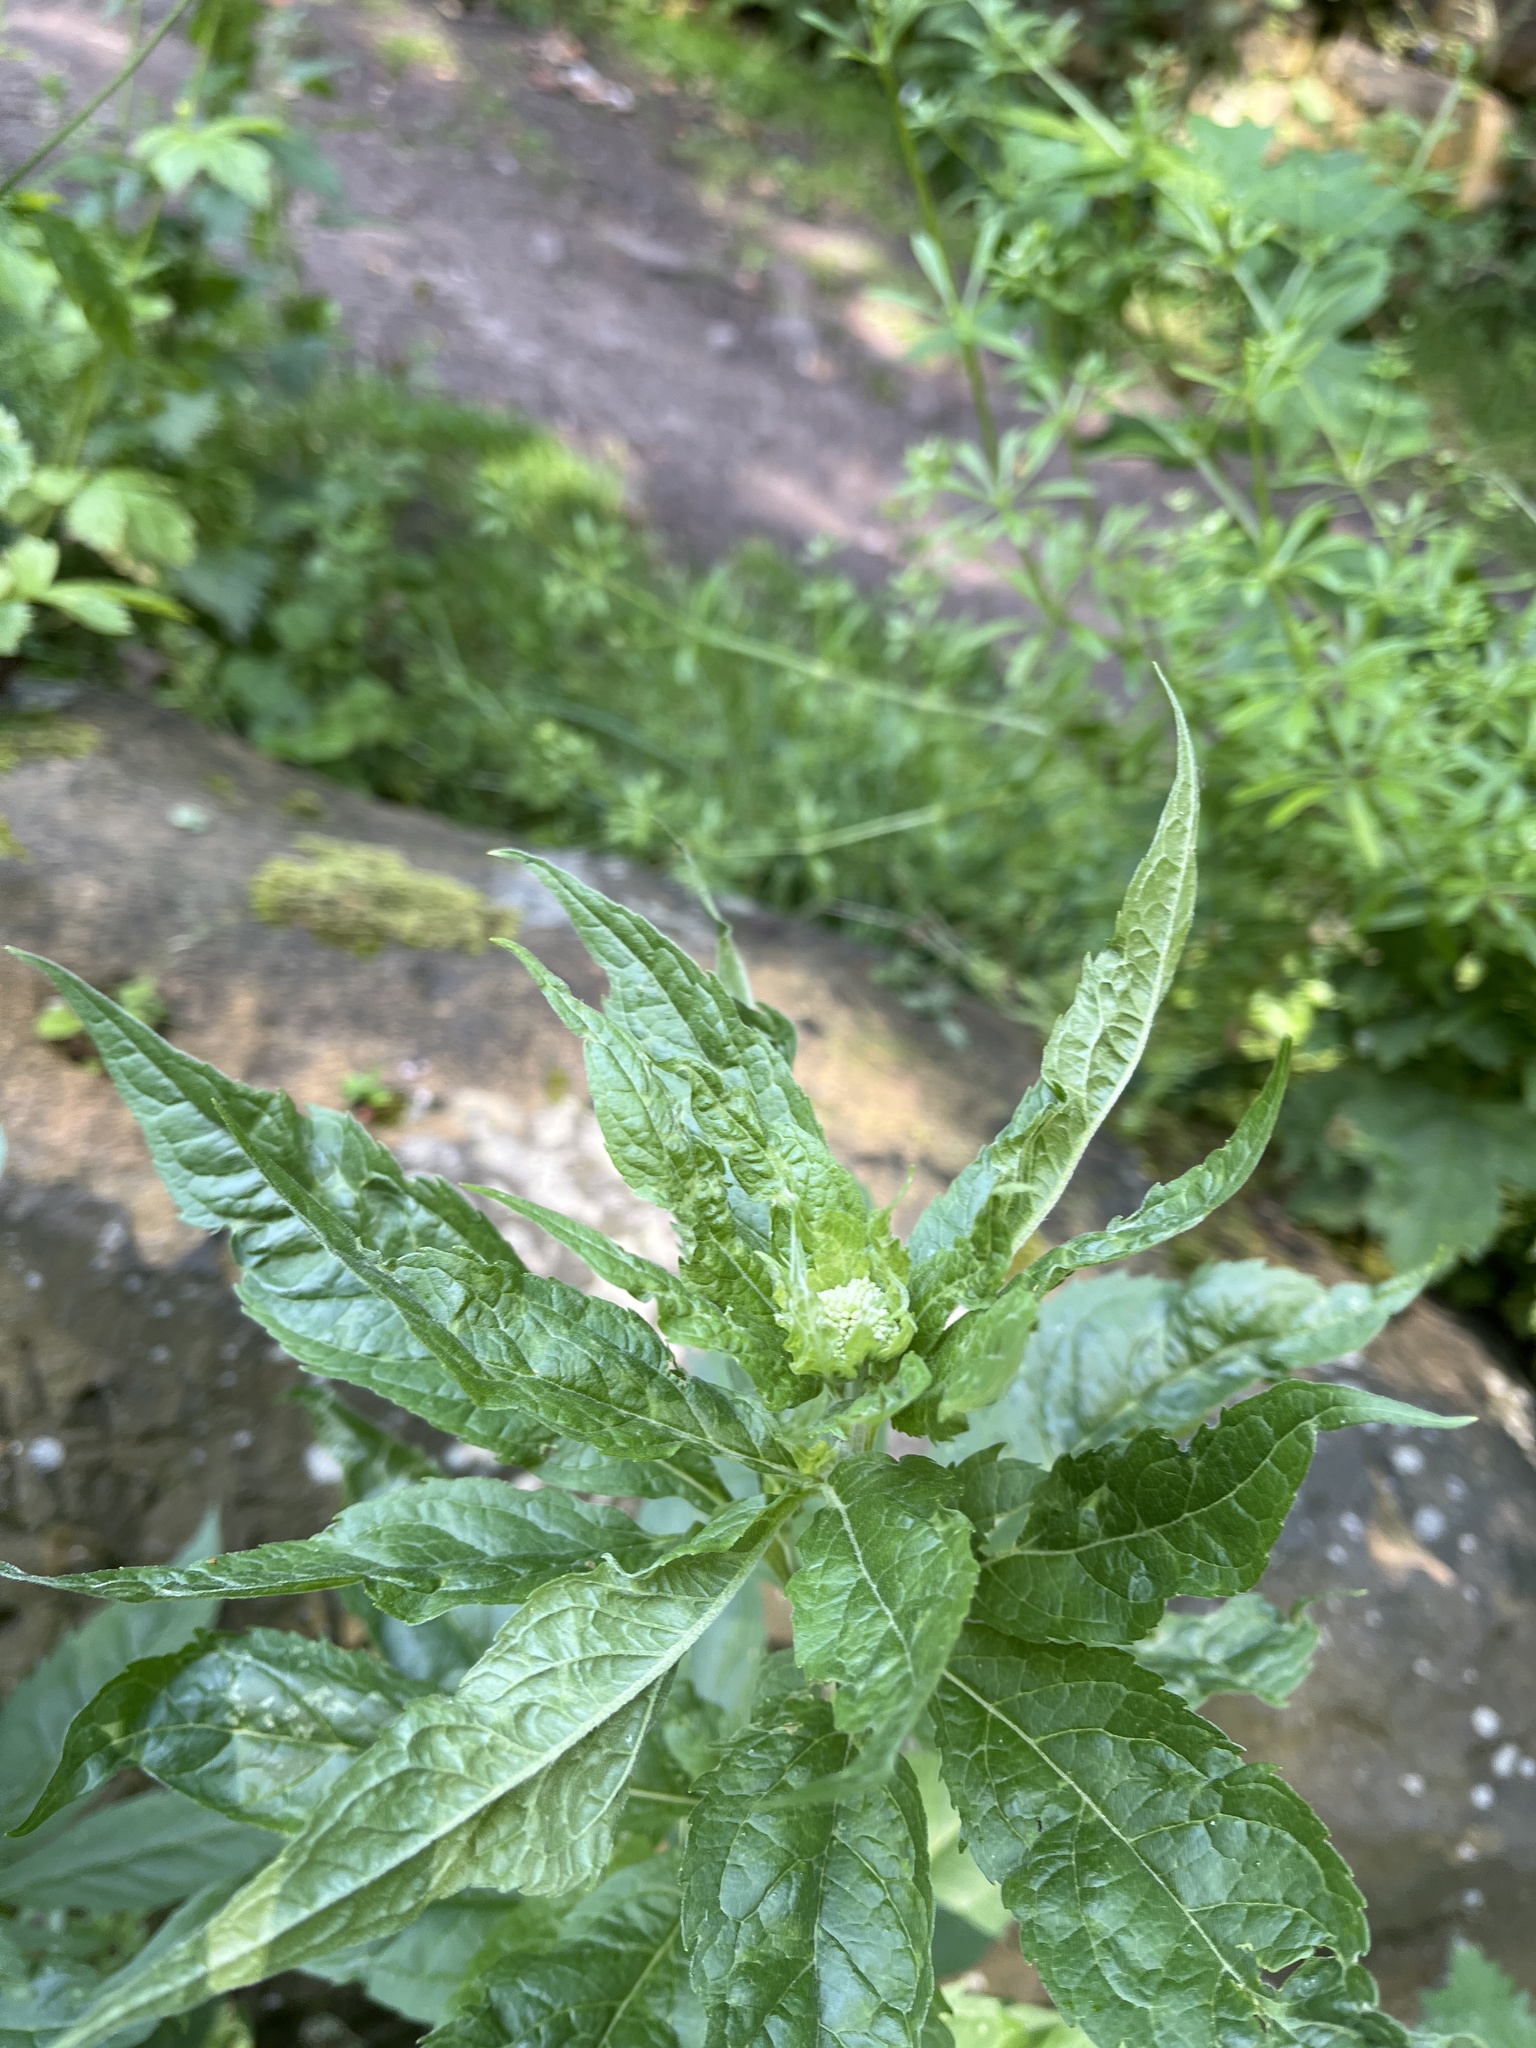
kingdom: Plantae
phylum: Tracheophyta
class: Magnoliopsida
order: Asterales
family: Asteraceae
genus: Eupatorium
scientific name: Eupatorium cannabinum
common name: Hemp-agrimony
